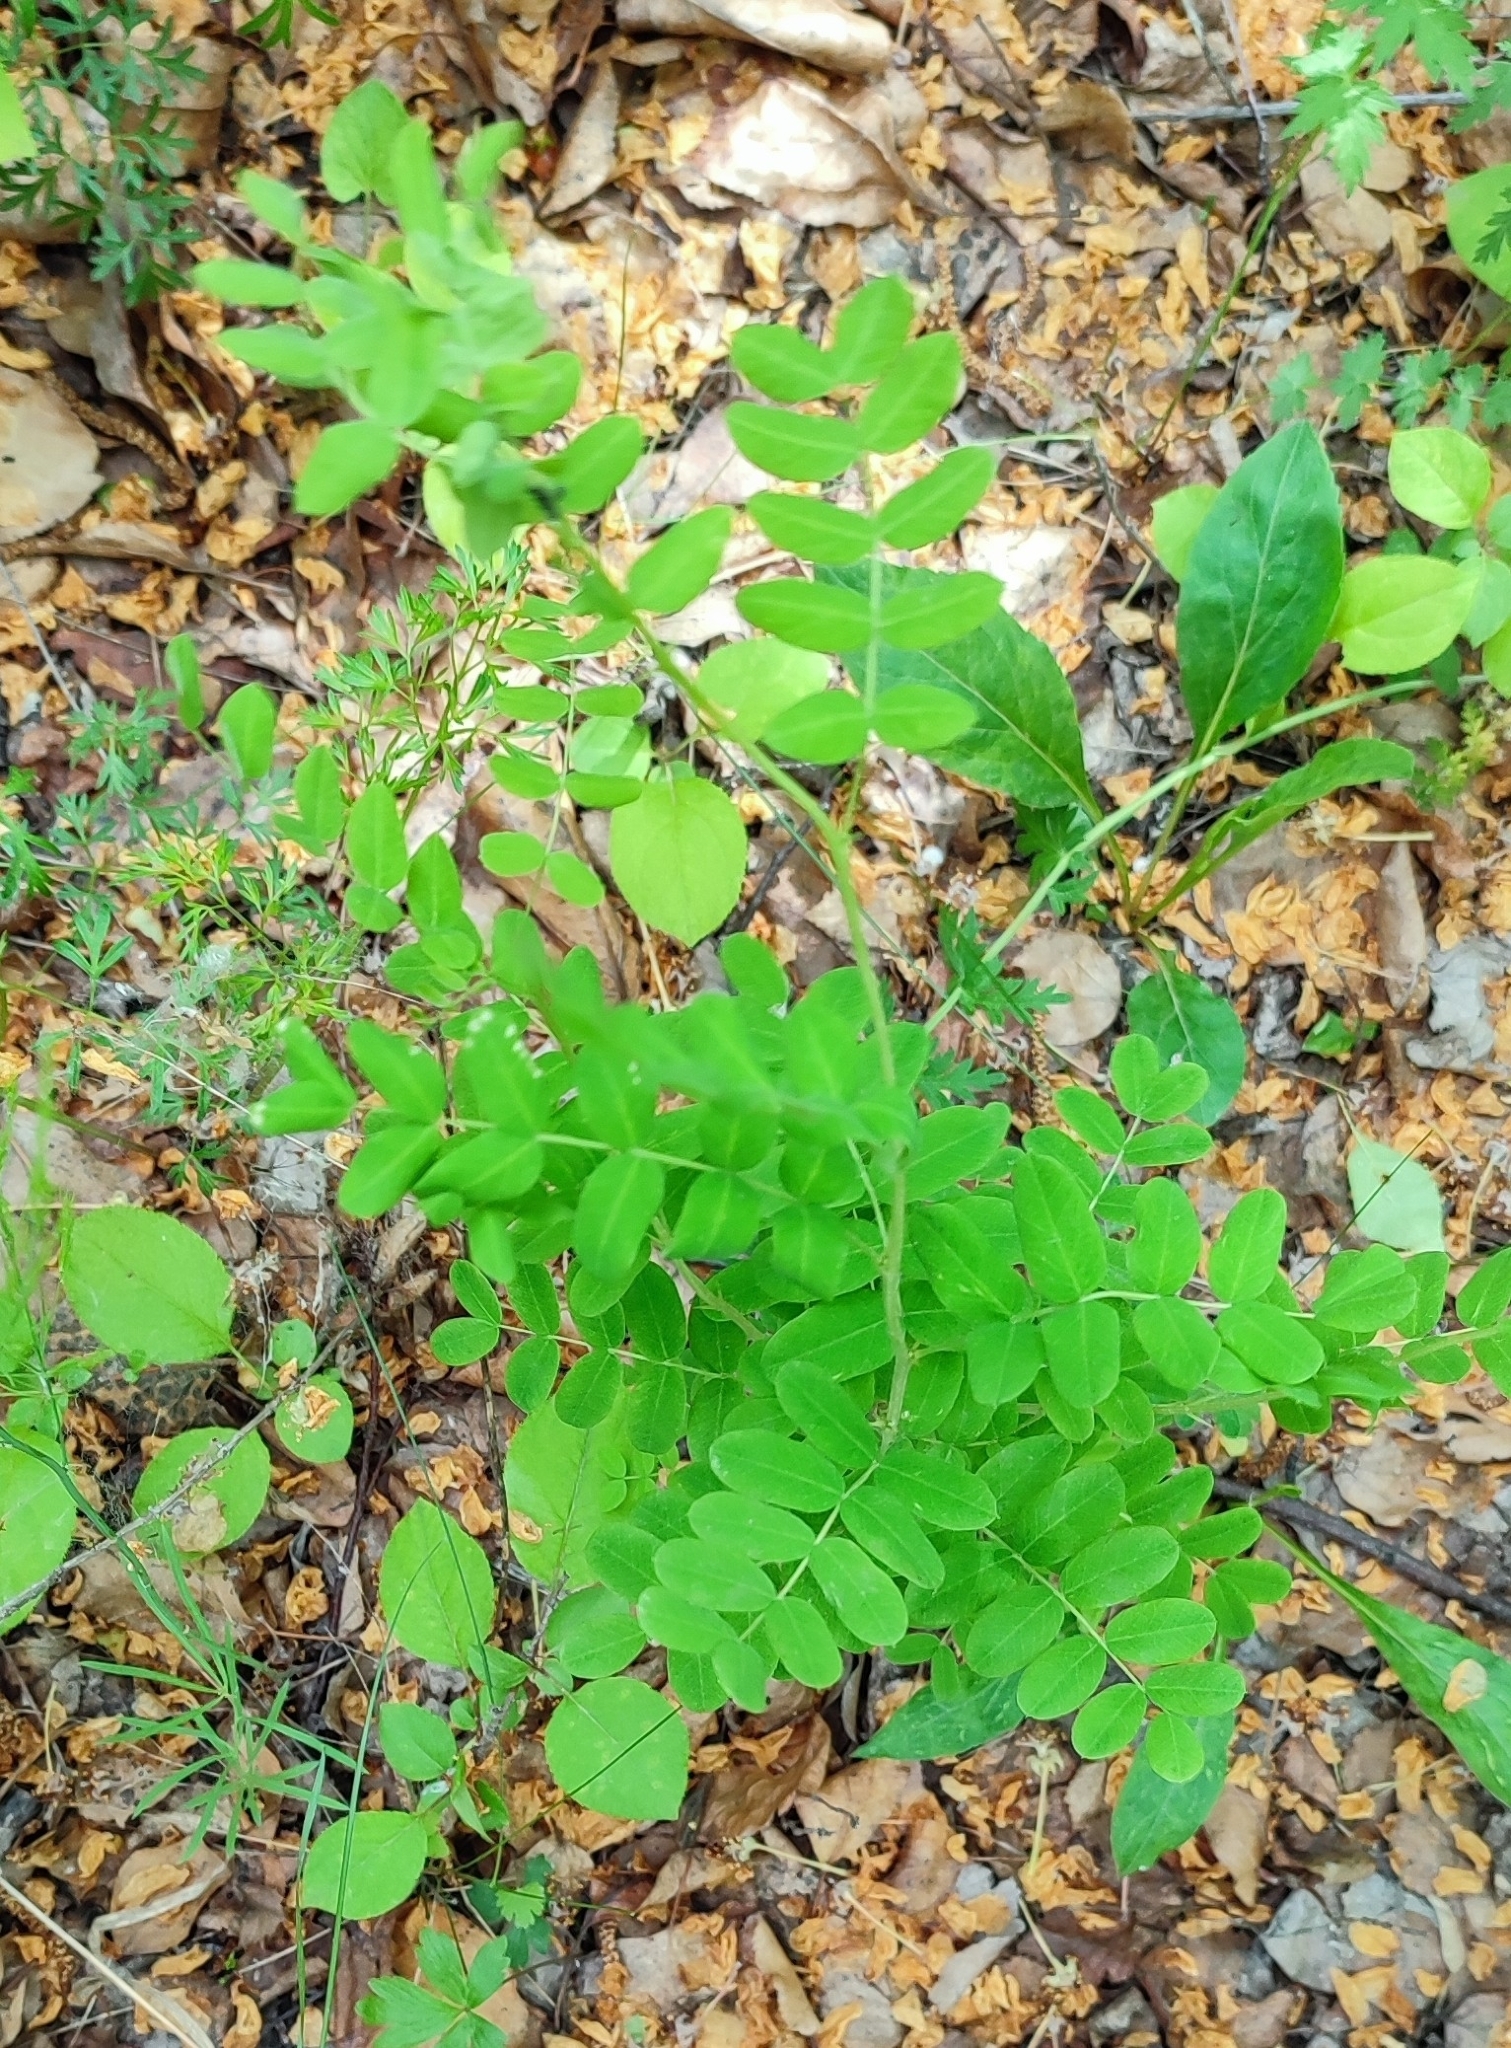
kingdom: Plantae
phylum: Tracheophyta
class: Magnoliopsida
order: Fabales
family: Fabaceae
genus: Caragana
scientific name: Caragana arborescens
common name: Siberian peashrub
